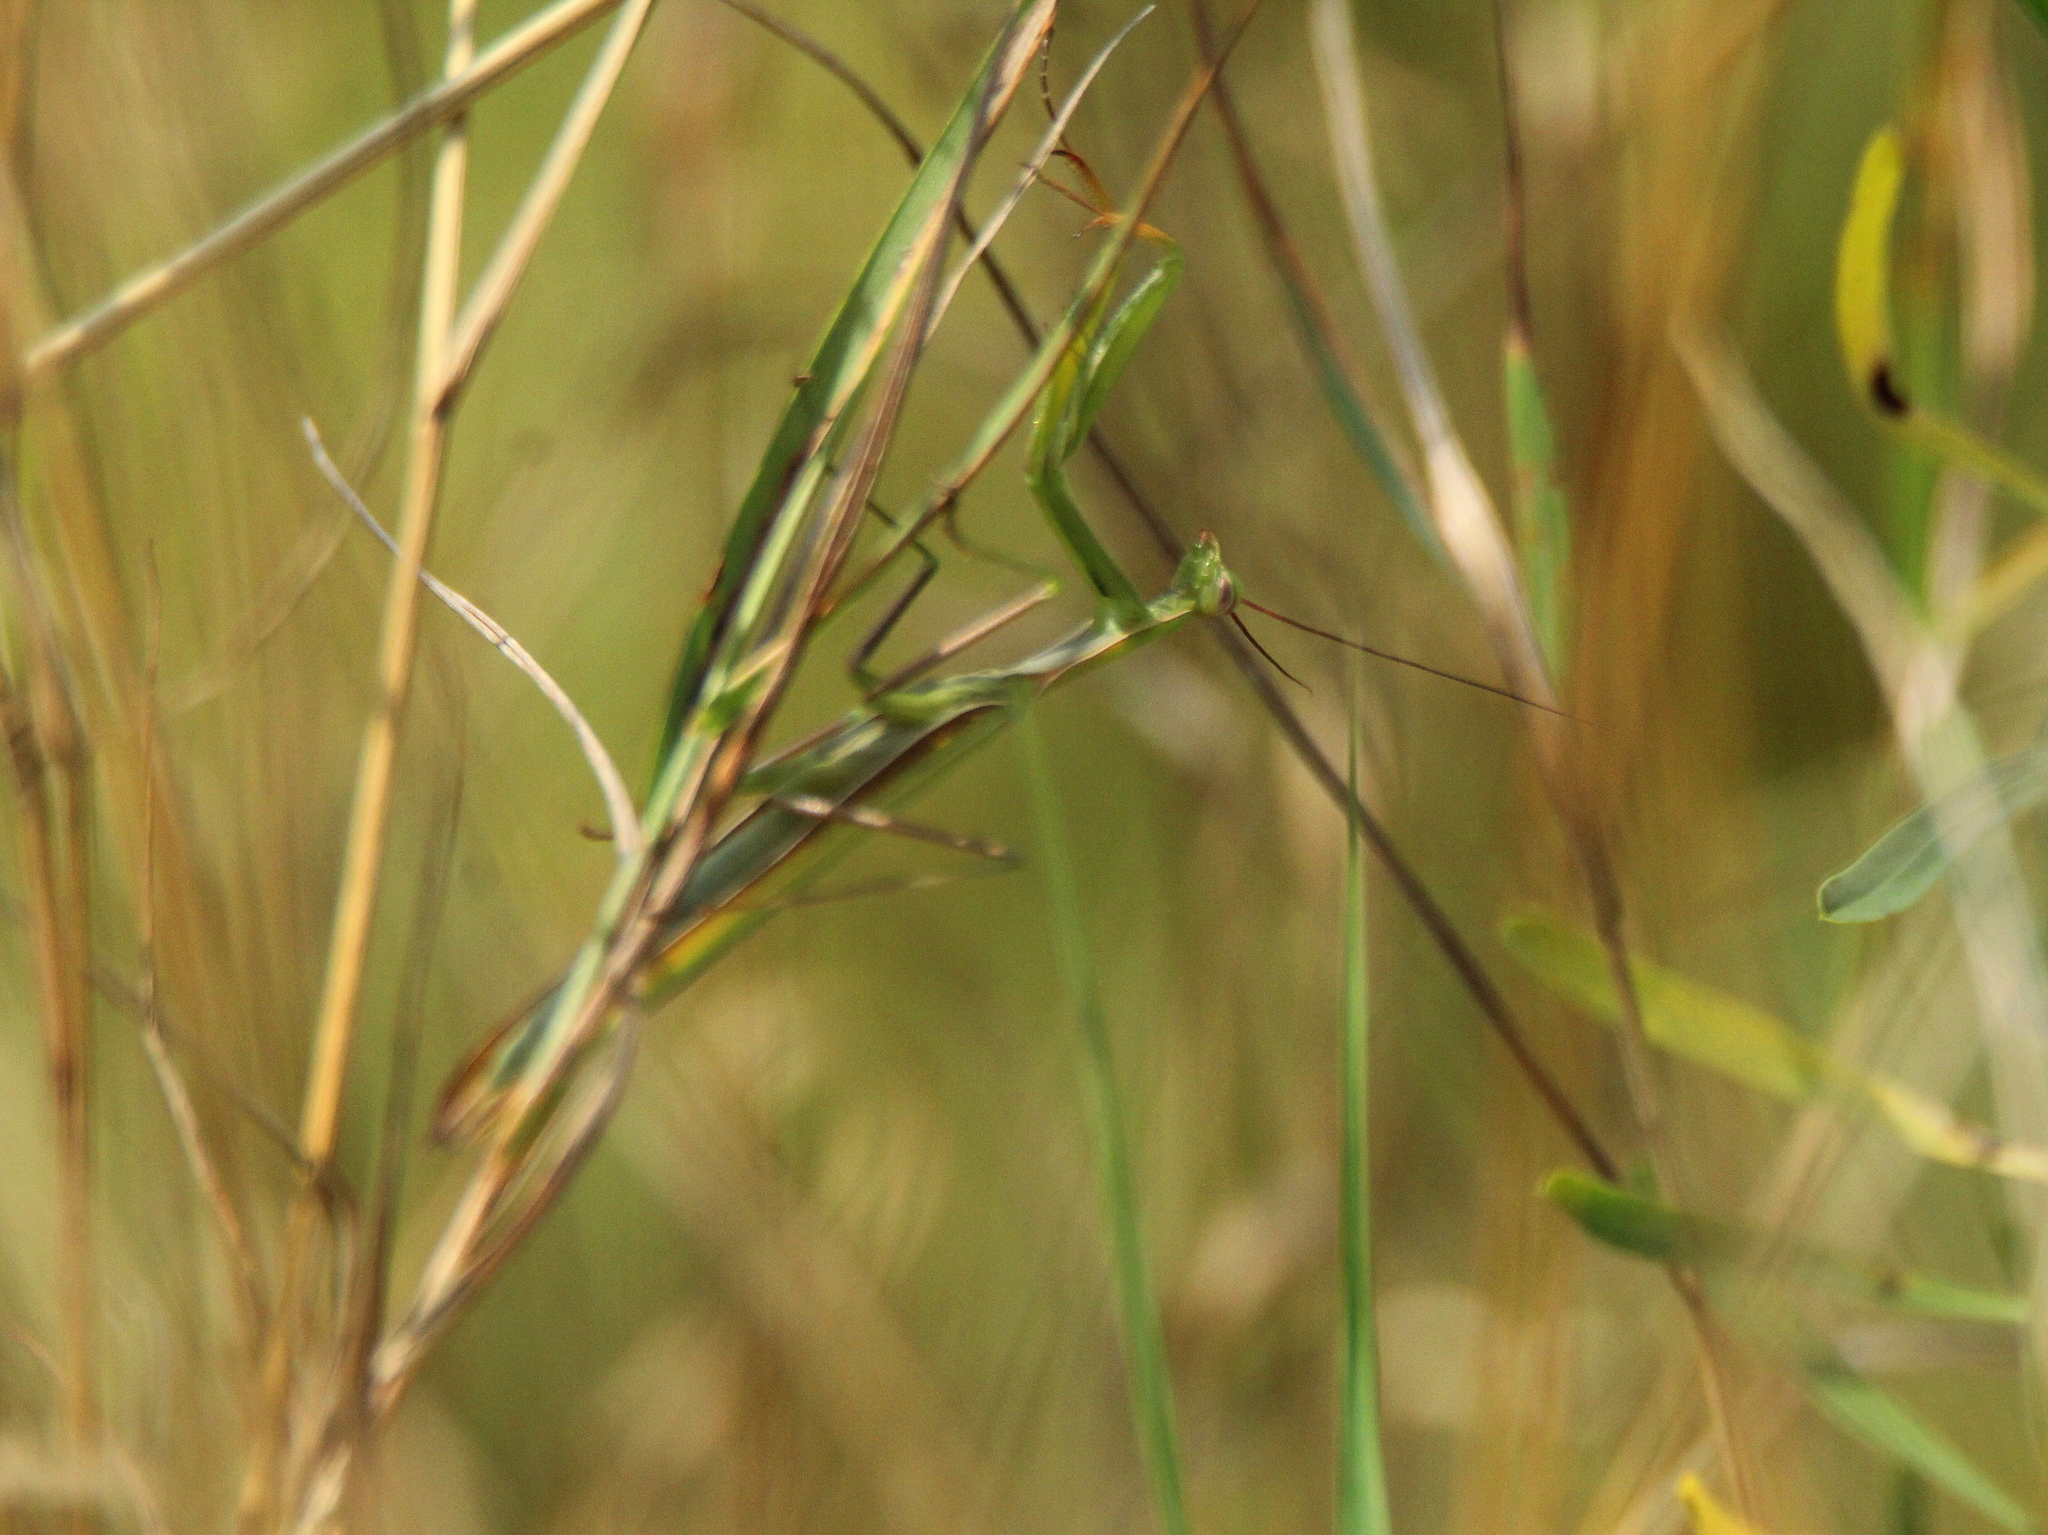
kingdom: Animalia
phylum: Arthropoda
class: Insecta
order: Mantodea
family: Mantidae
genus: Mantis
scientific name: Mantis religiosa
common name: Praying mantis
